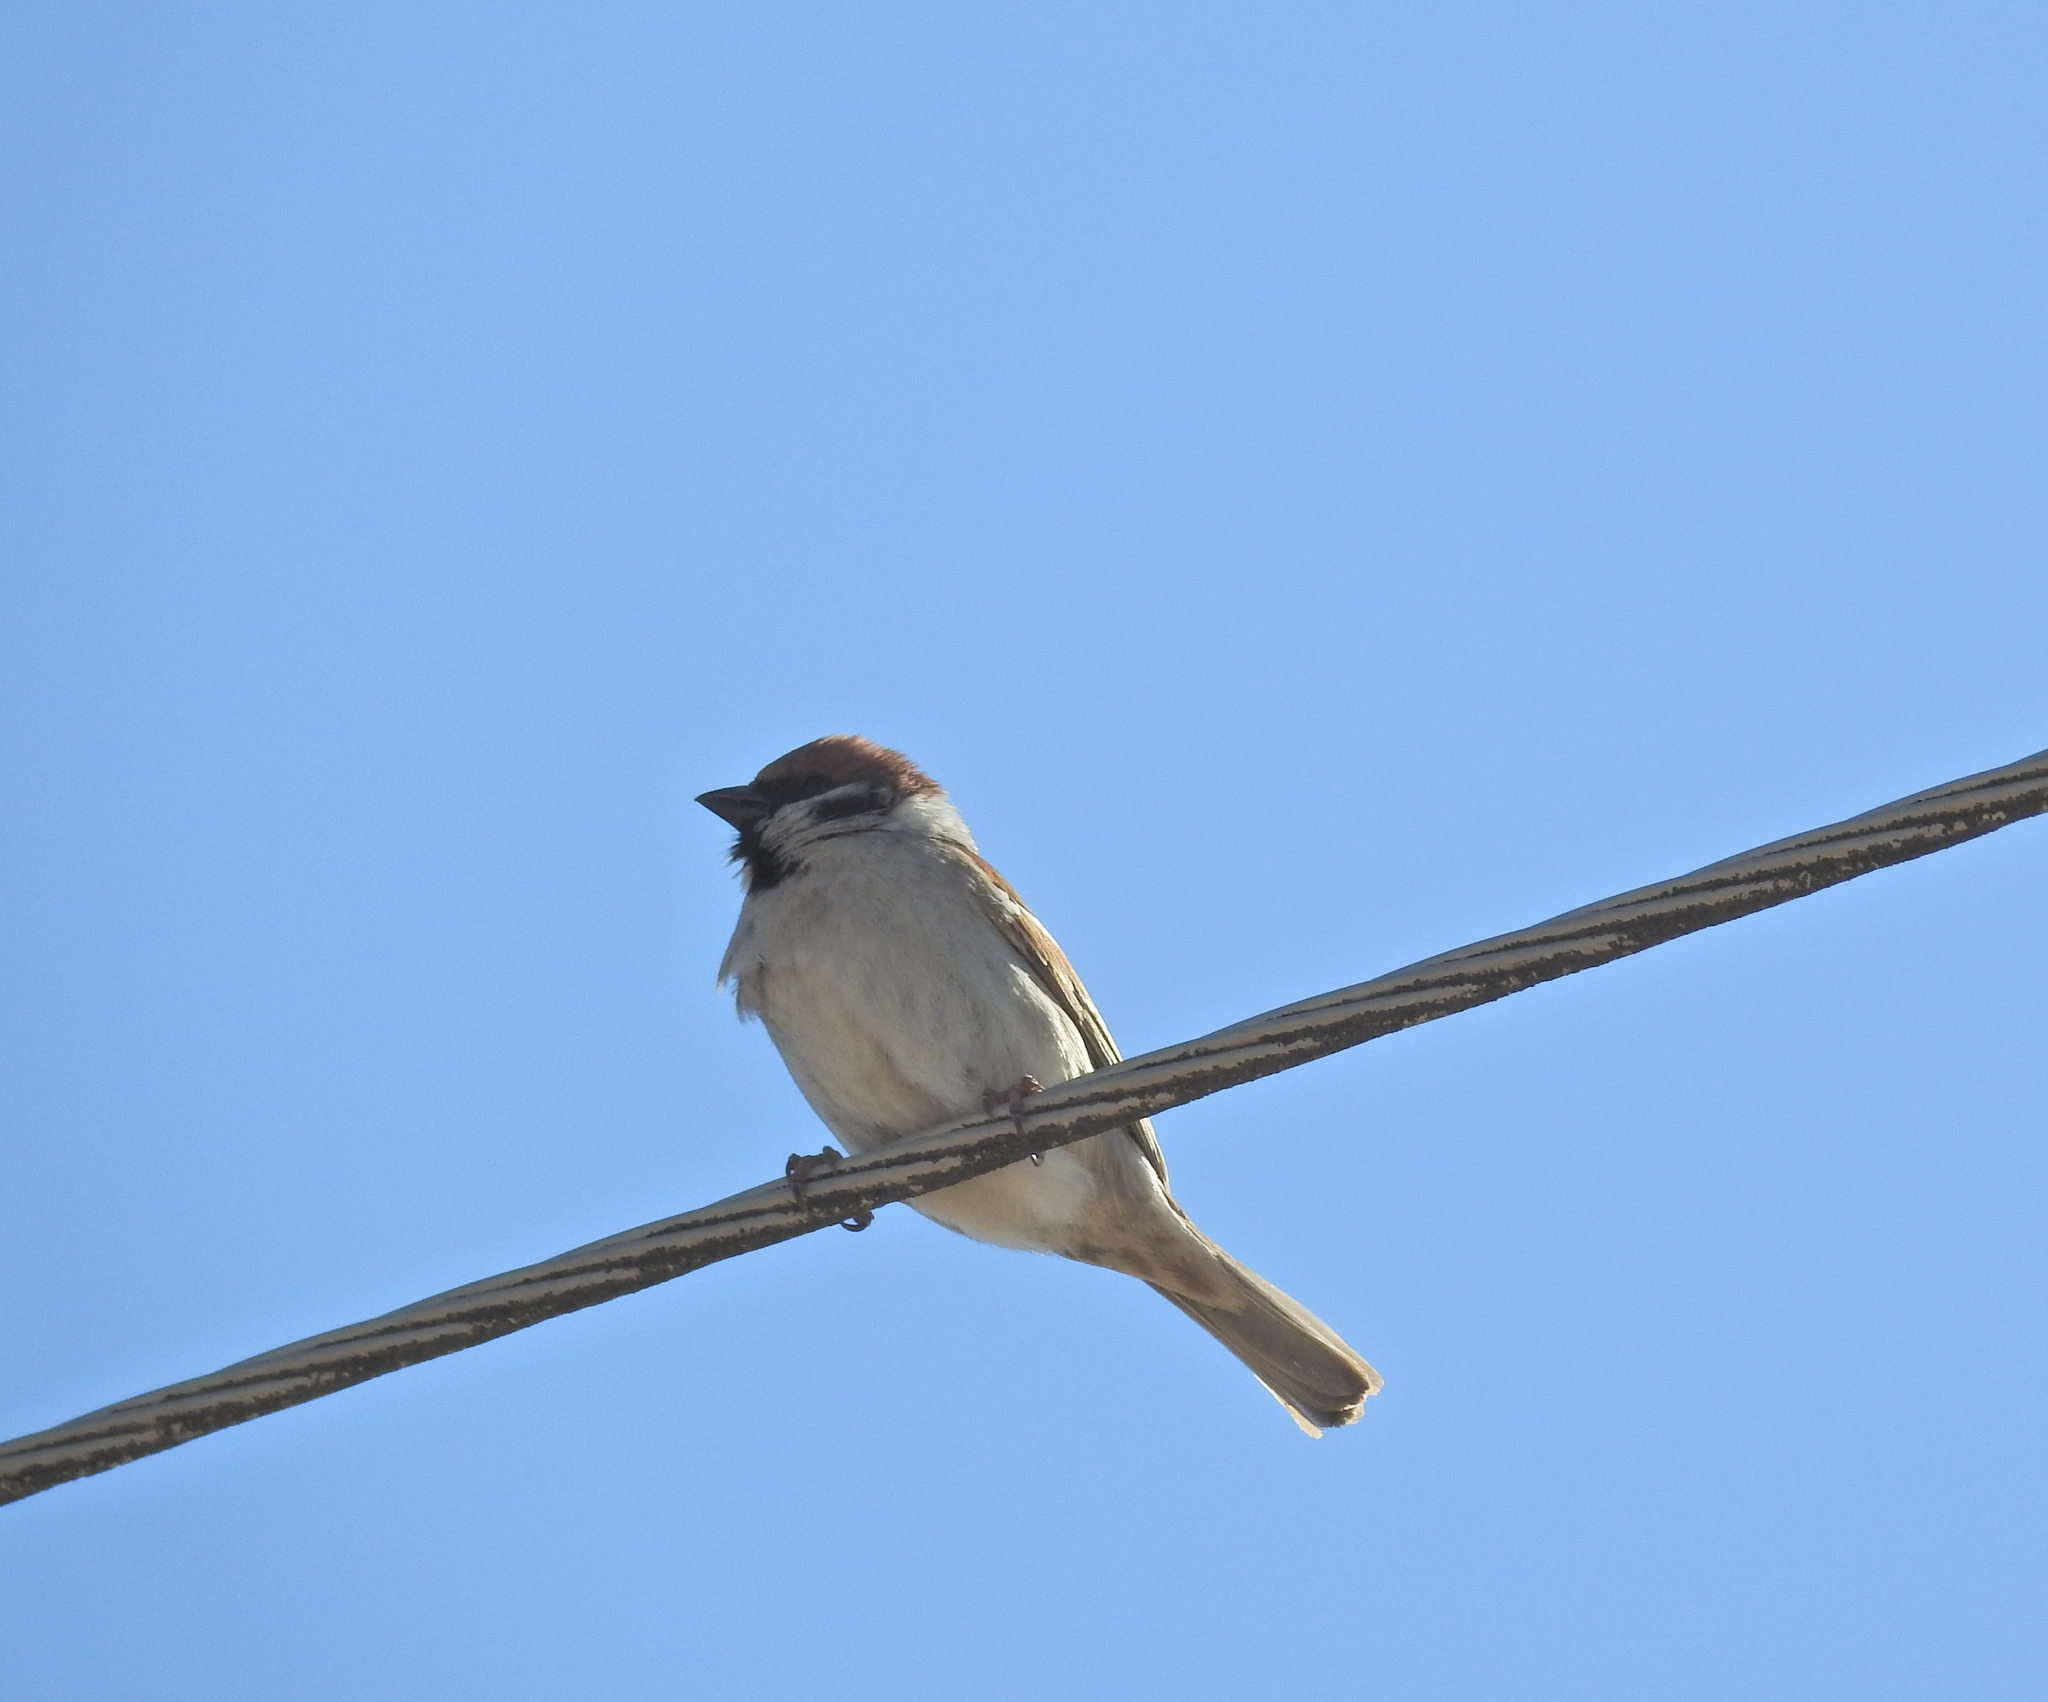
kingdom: Animalia
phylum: Chordata
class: Aves
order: Passeriformes
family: Passeridae
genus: Passer
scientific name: Passer montanus
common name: Eurasian tree sparrow
